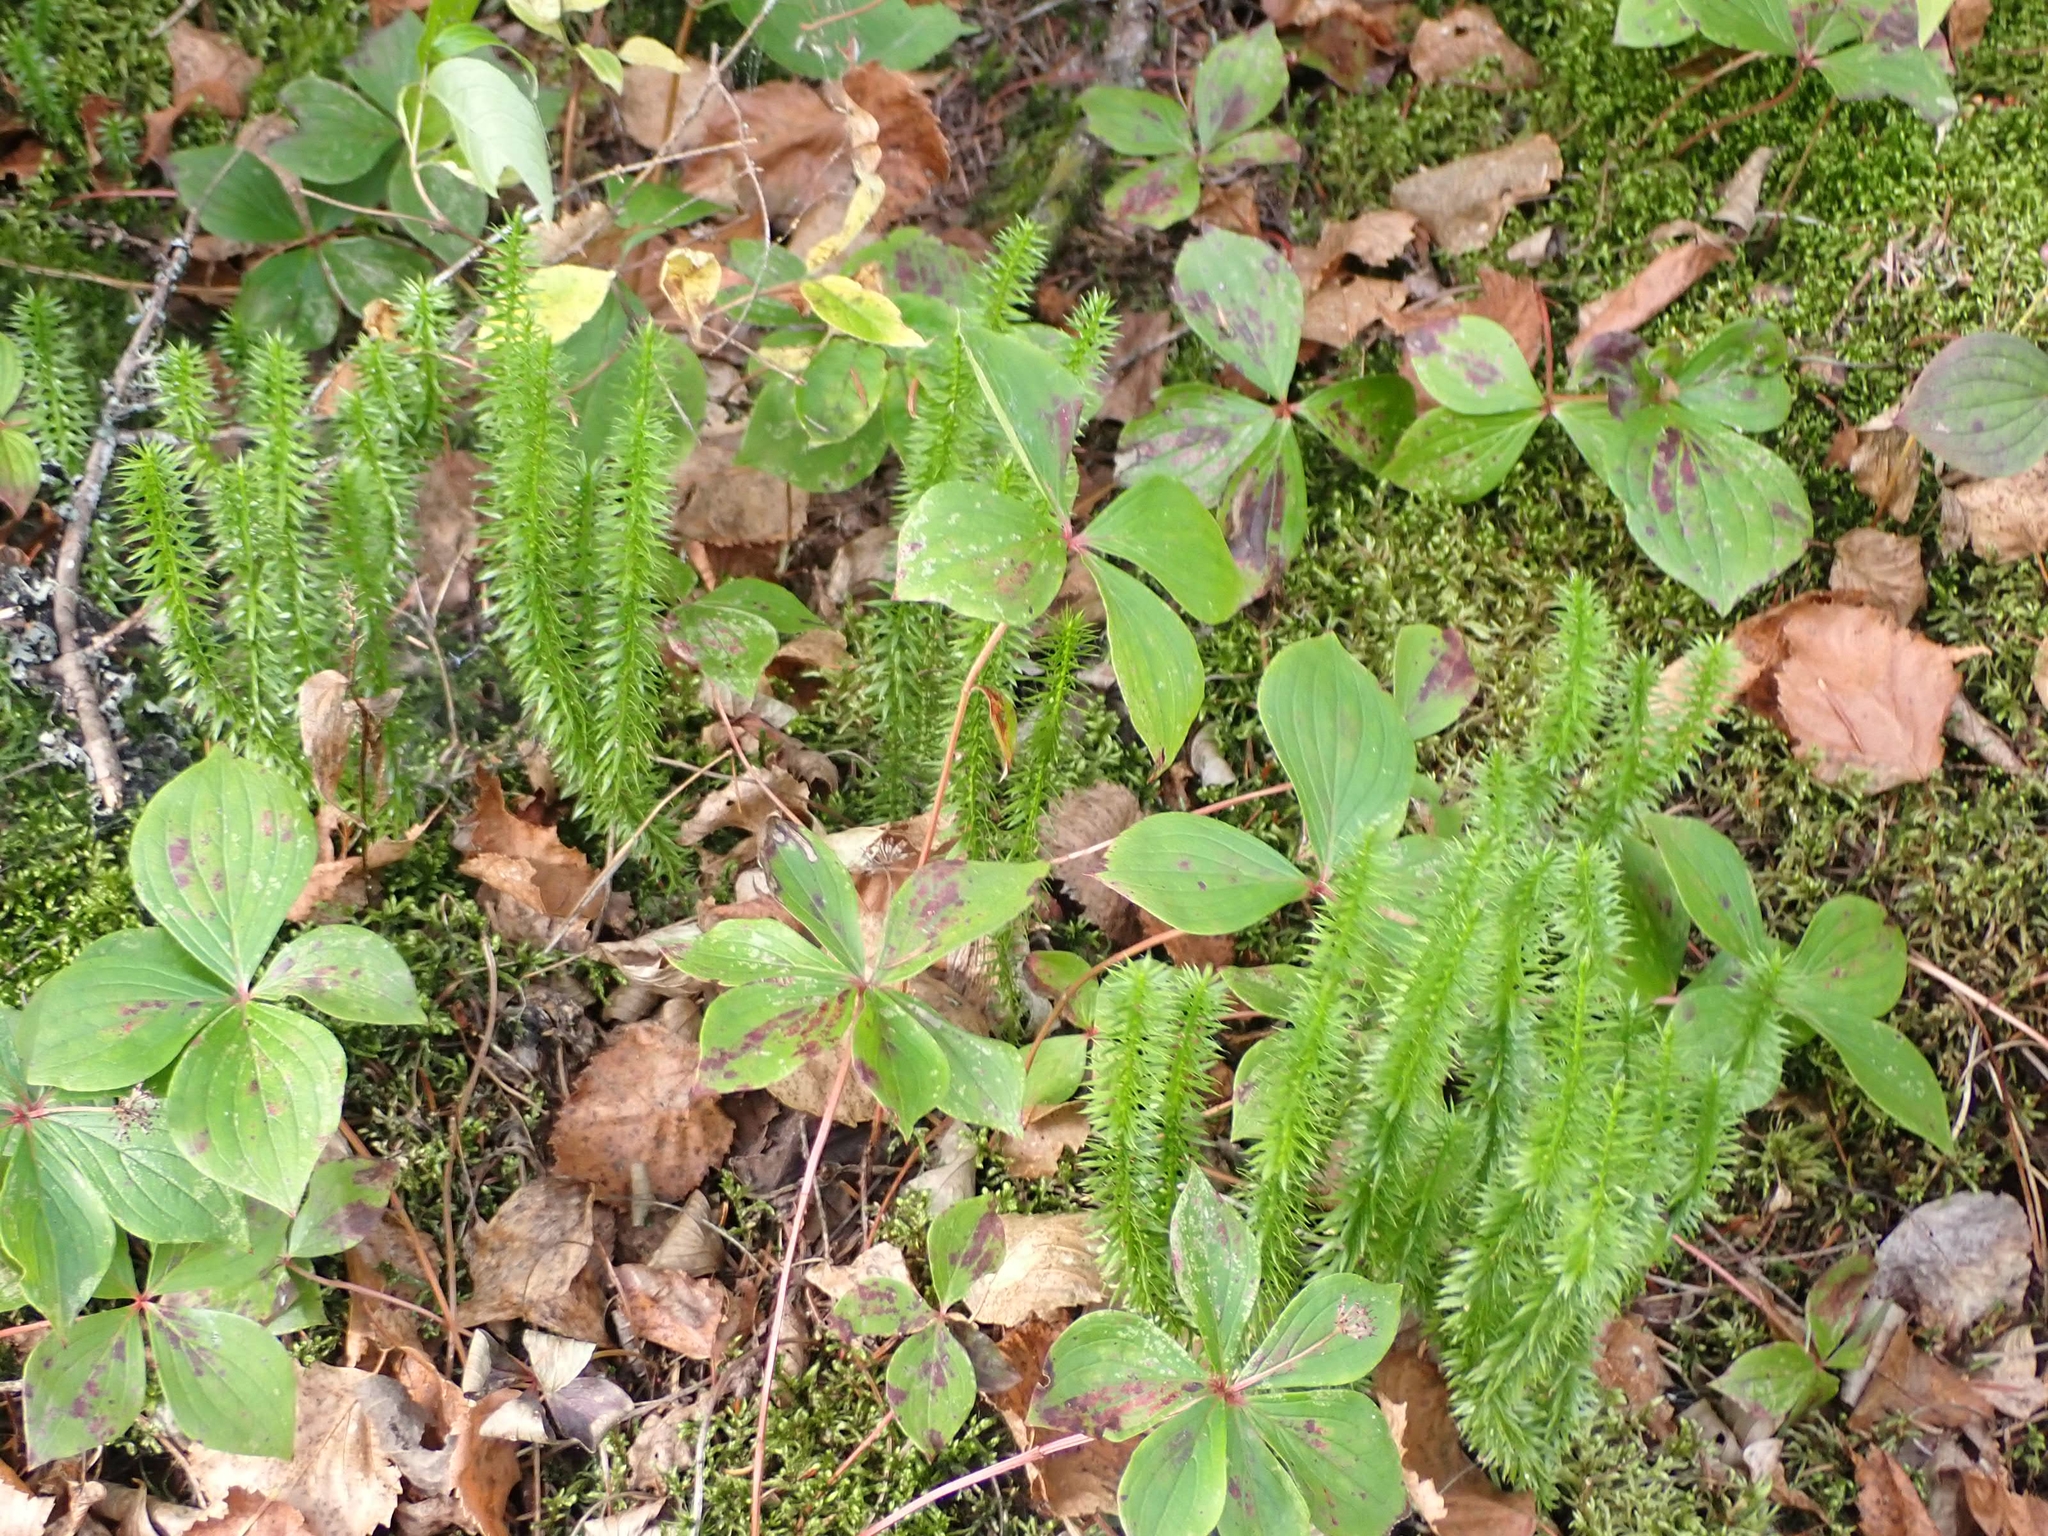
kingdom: Plantae
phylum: Tracheophyta
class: Lycopodiopsida
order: Lycopodiales
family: Lycopodiaceae
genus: Spinulum
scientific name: Spinulum annotinum
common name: Interrupted club-moss
